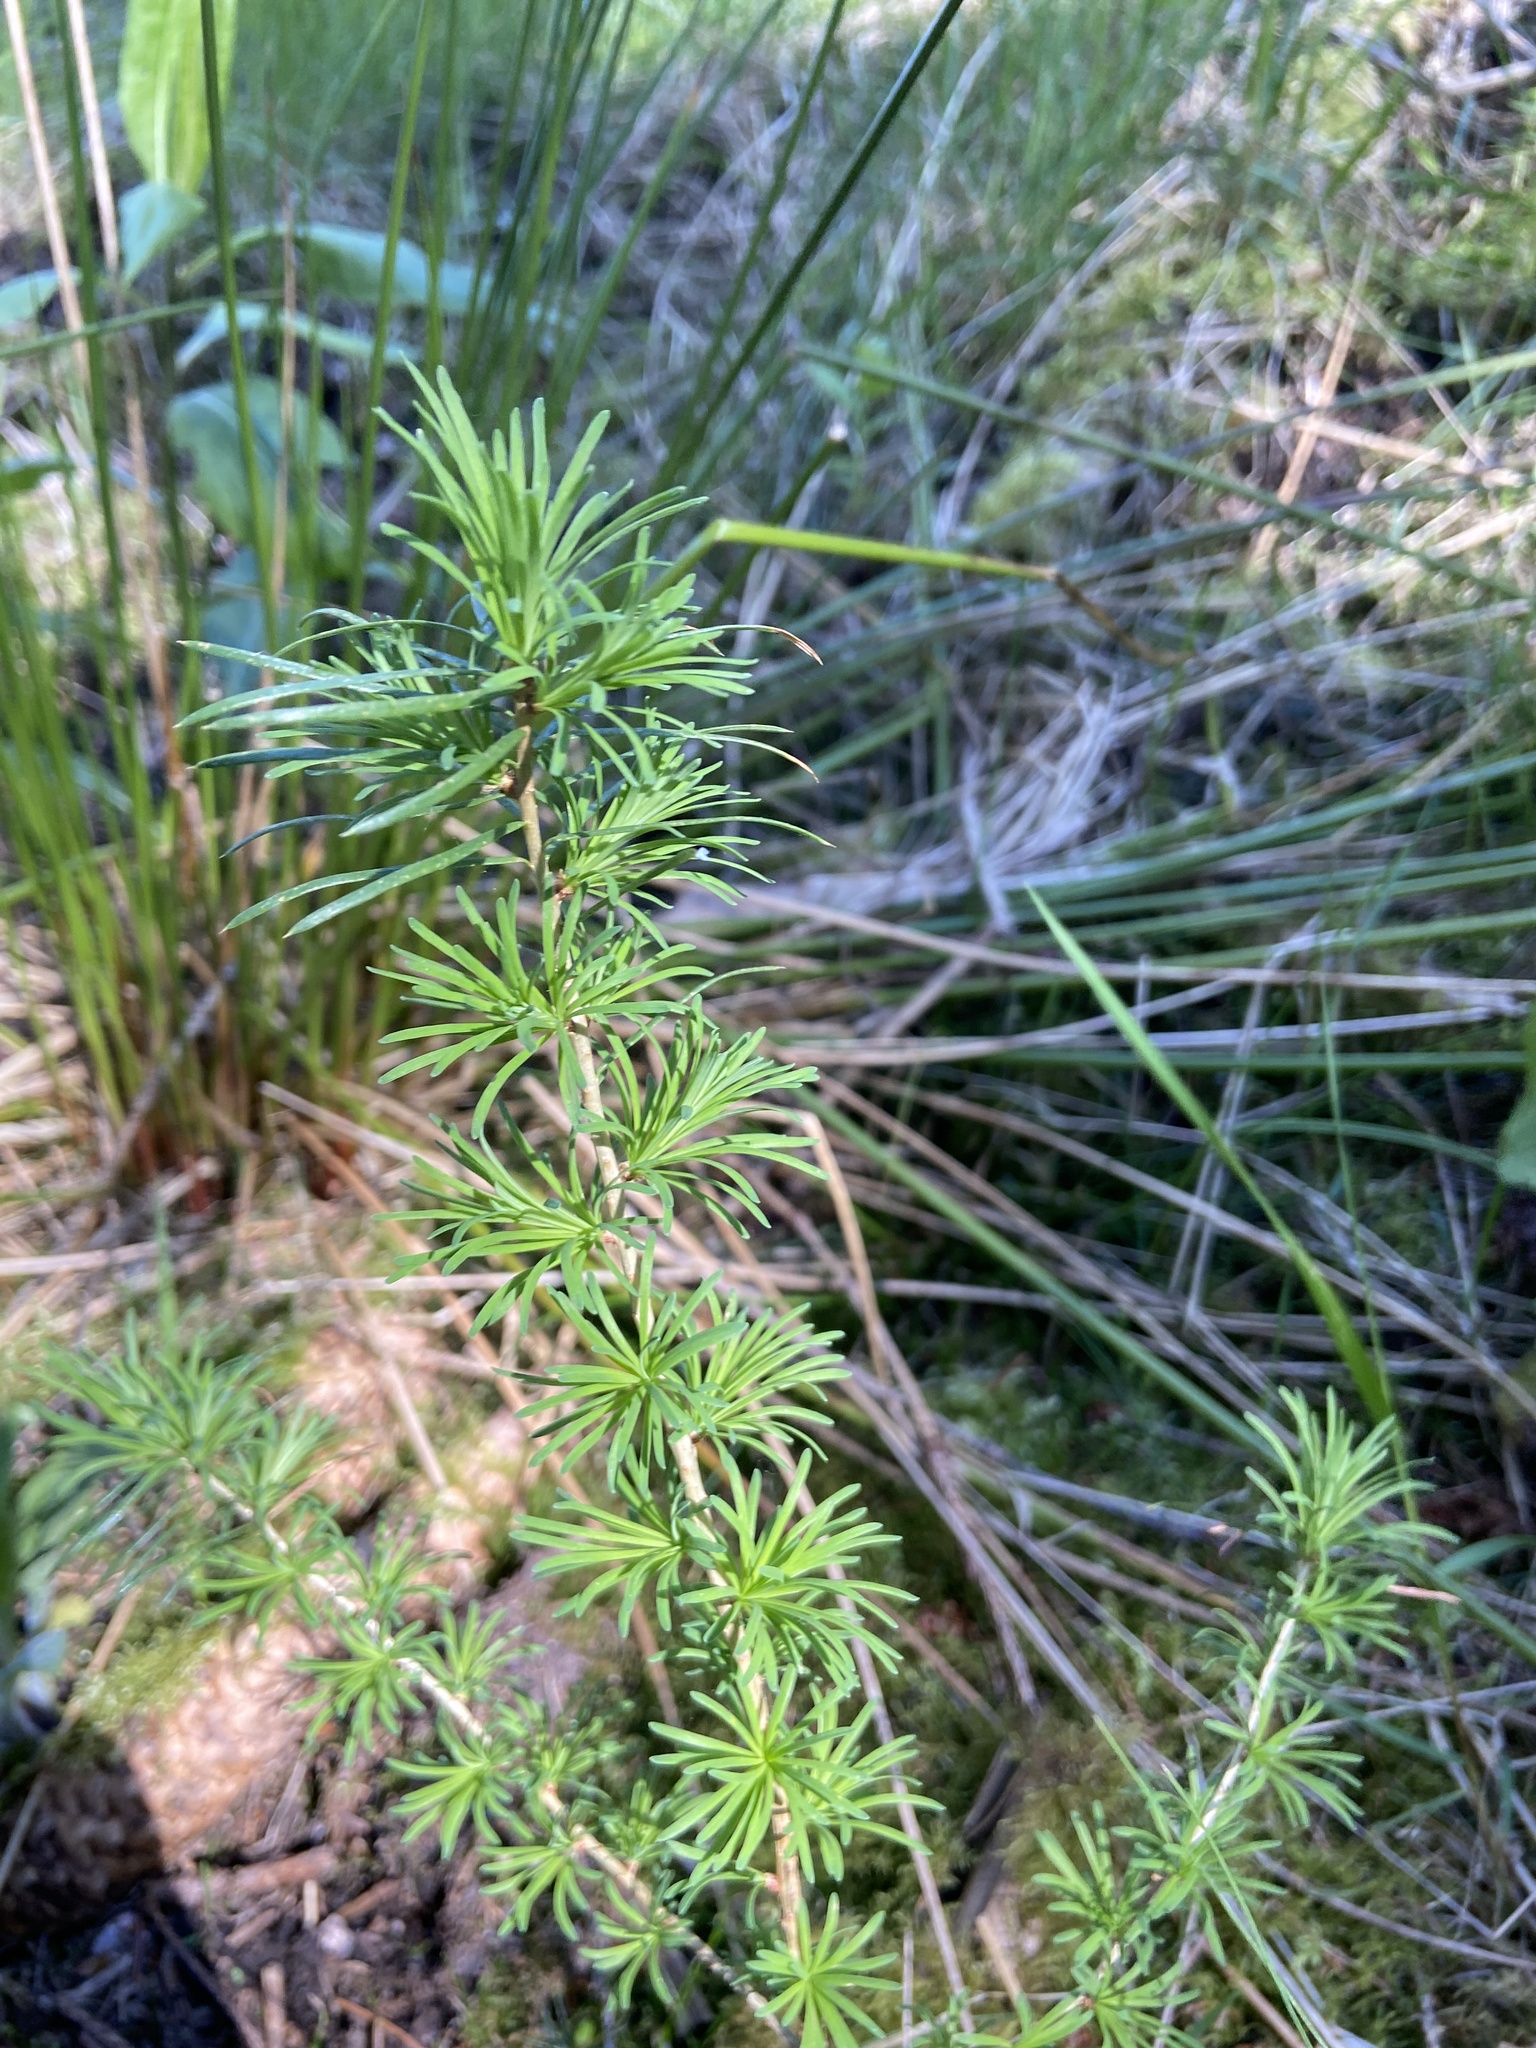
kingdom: Plantae
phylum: Tracheophyta
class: Pinopsida
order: Pinales
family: Pinaceae
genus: Larix
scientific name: Larix decidua
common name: European larch
